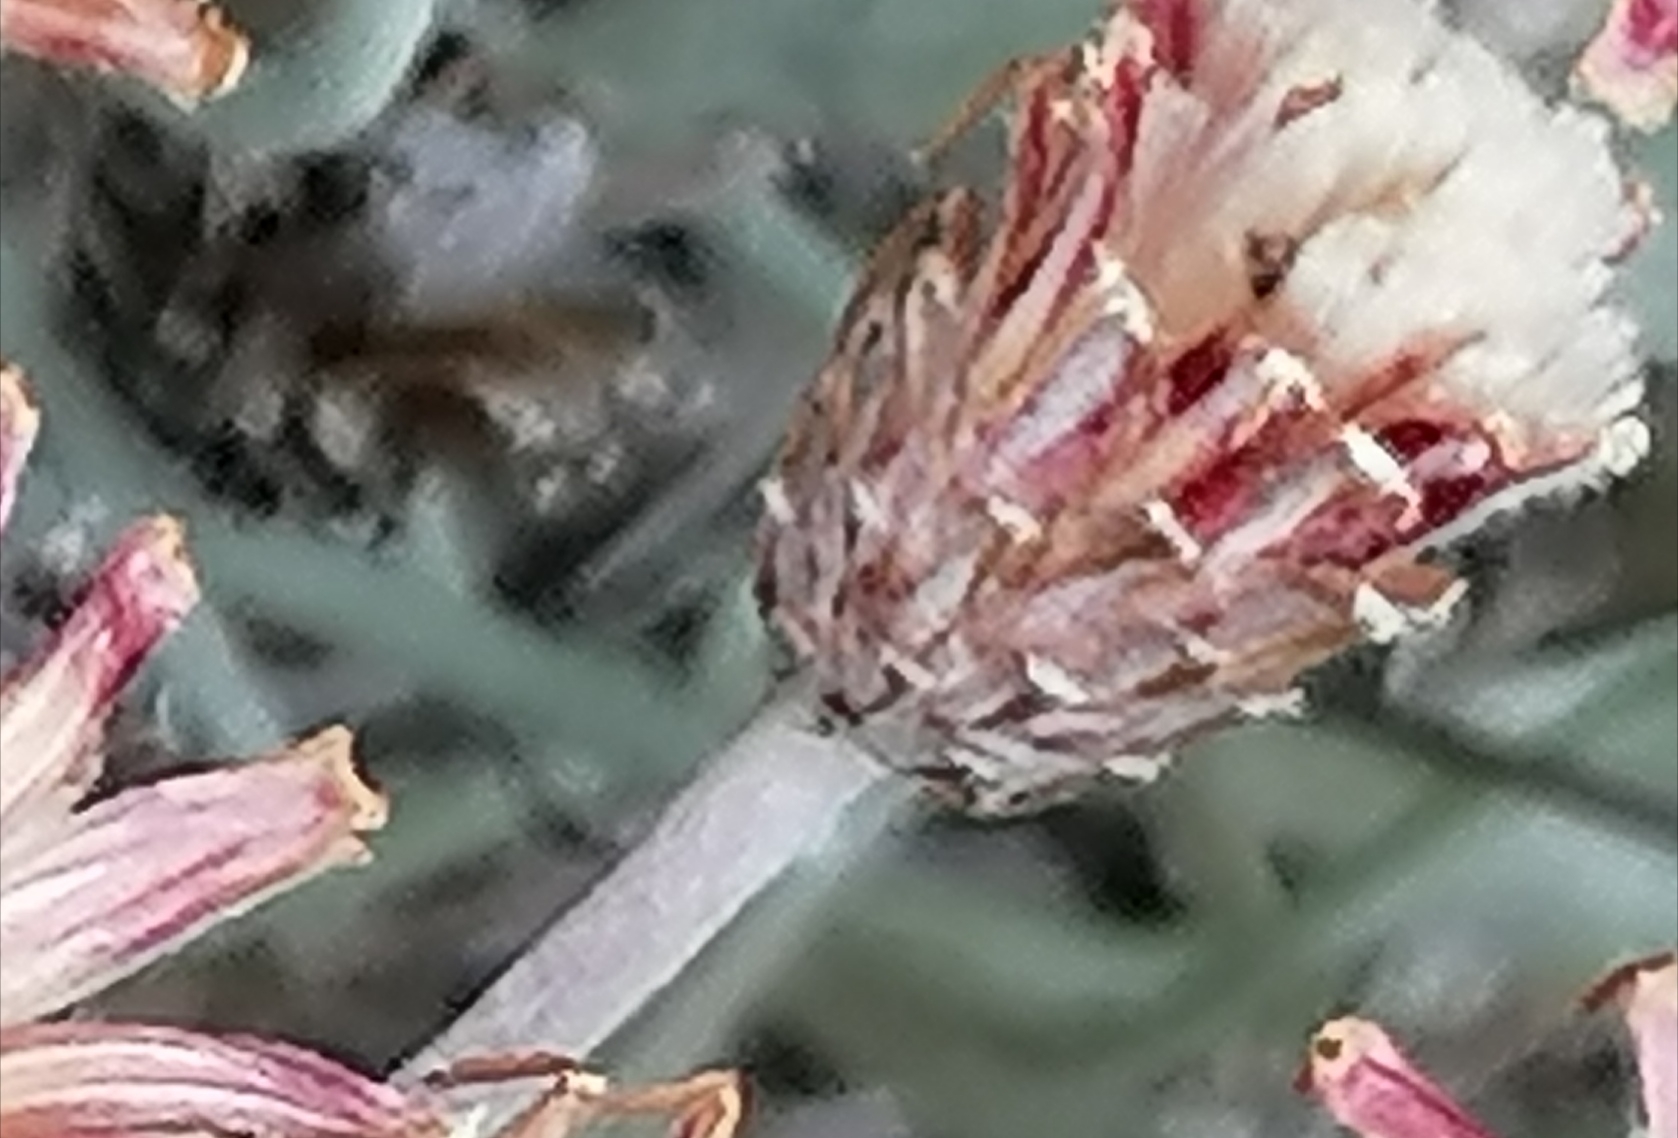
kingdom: Plantae
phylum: Tracheophyta
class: Magnoliopsida
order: Asterales
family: Asteraceae
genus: Syncarpha
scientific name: Syncarpha gnaphaloides
